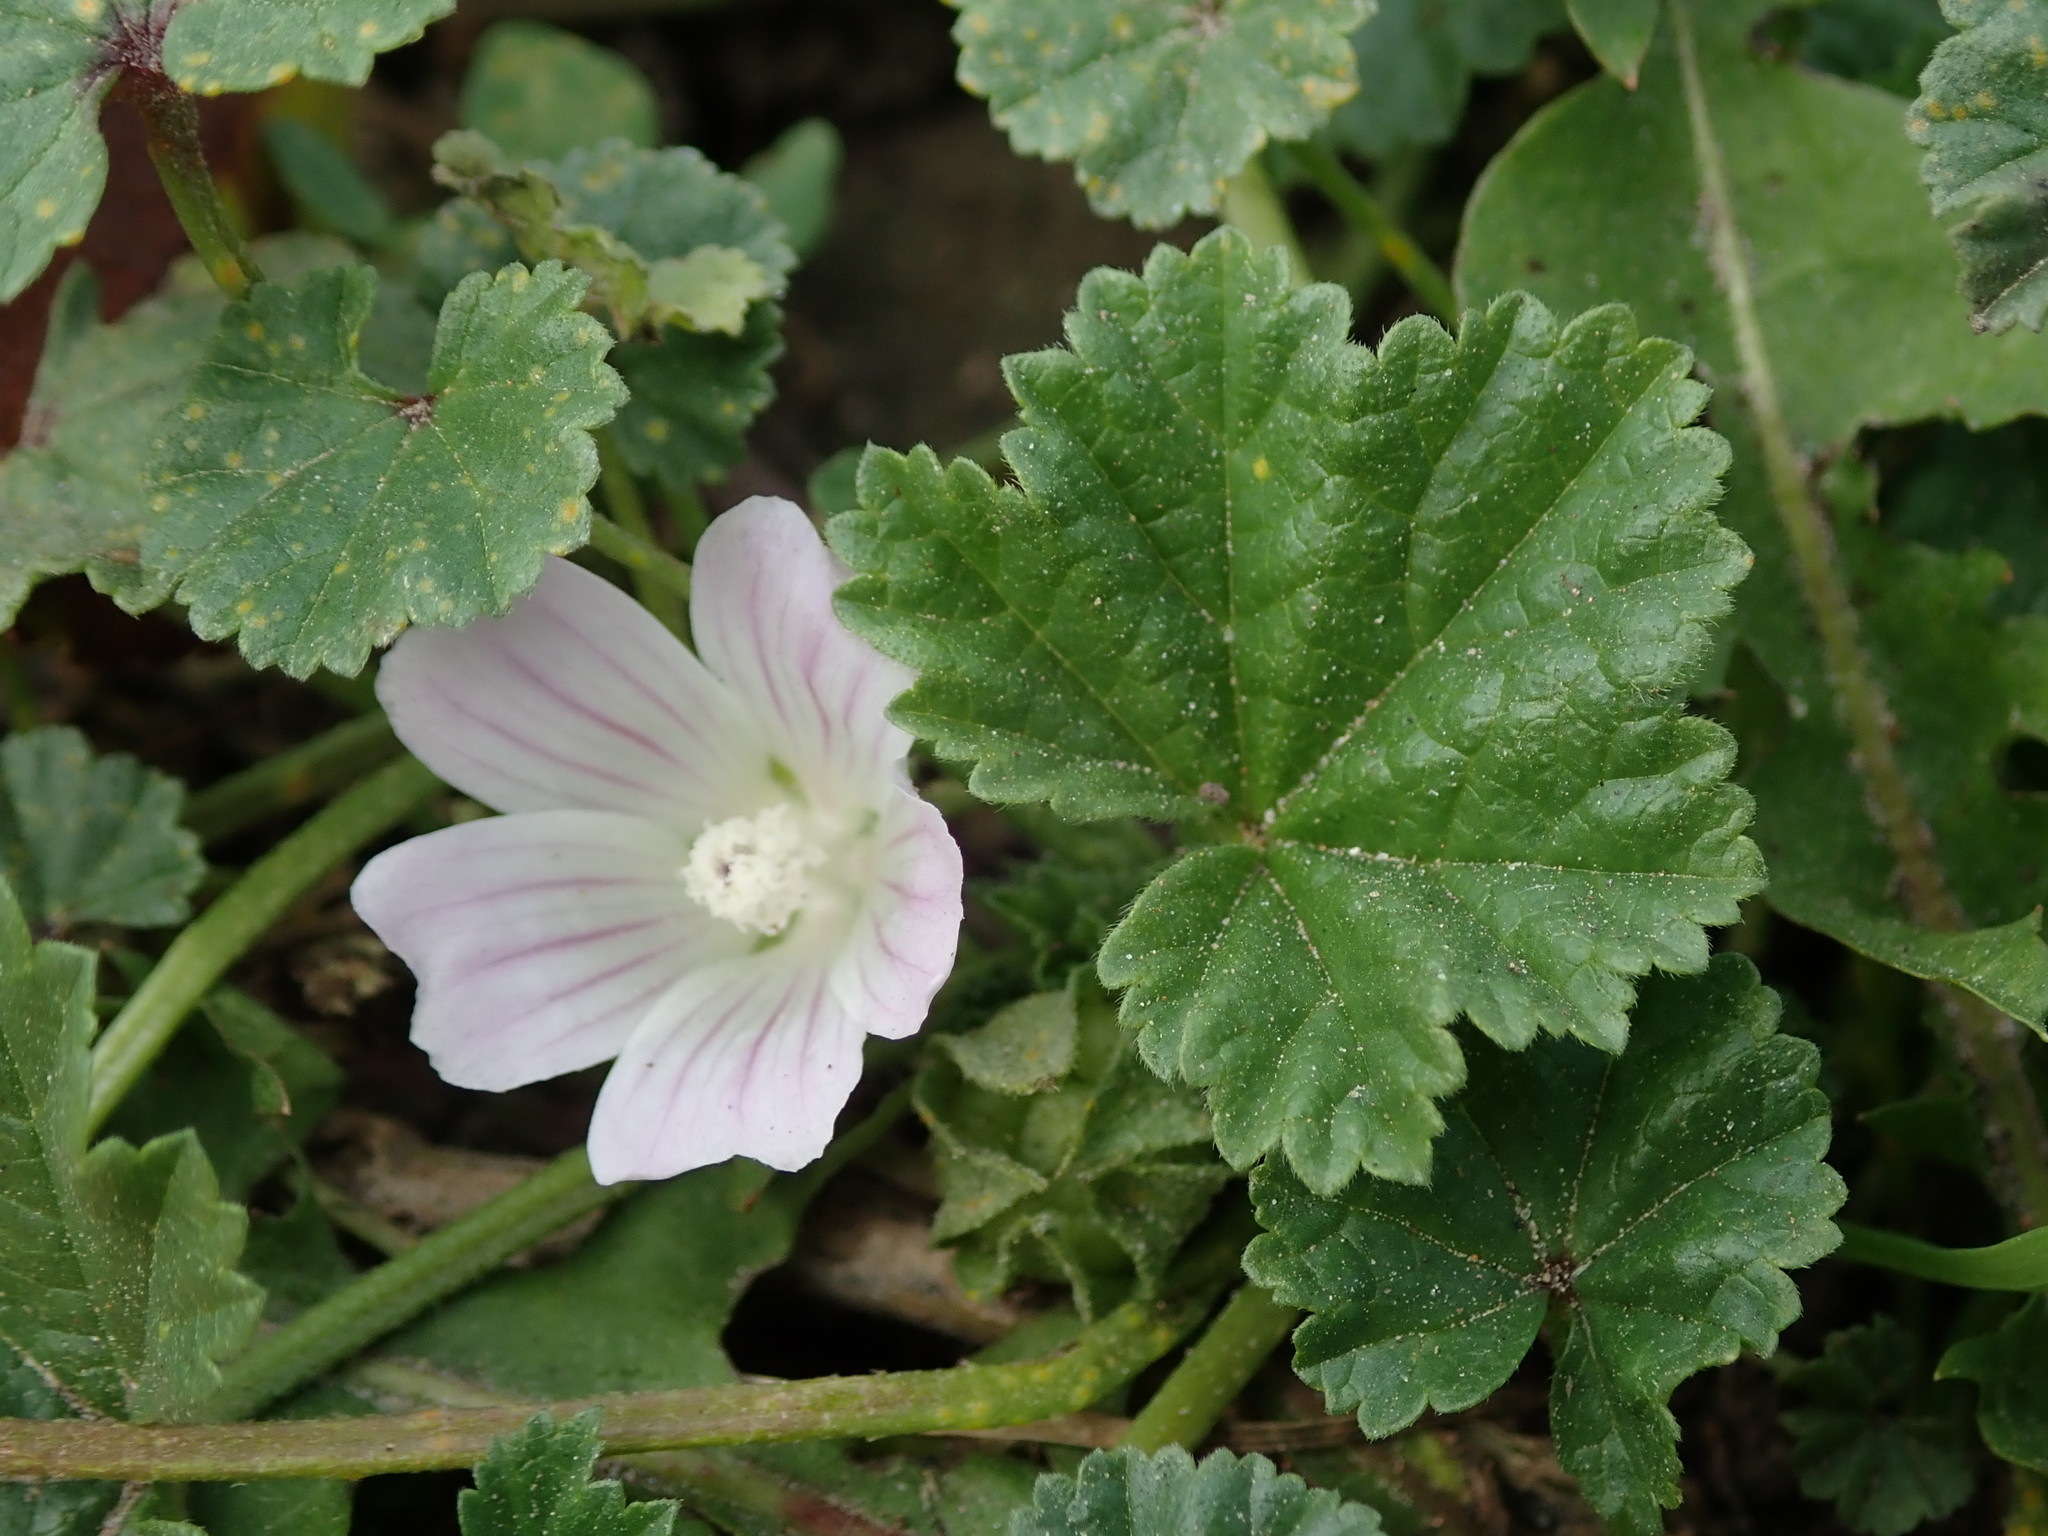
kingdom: Plantae
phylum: Tracheophyta
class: Magnoliopsida
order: Malvales
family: Malvaceae
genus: Malva
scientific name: Malva neglecta
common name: Common mallow
